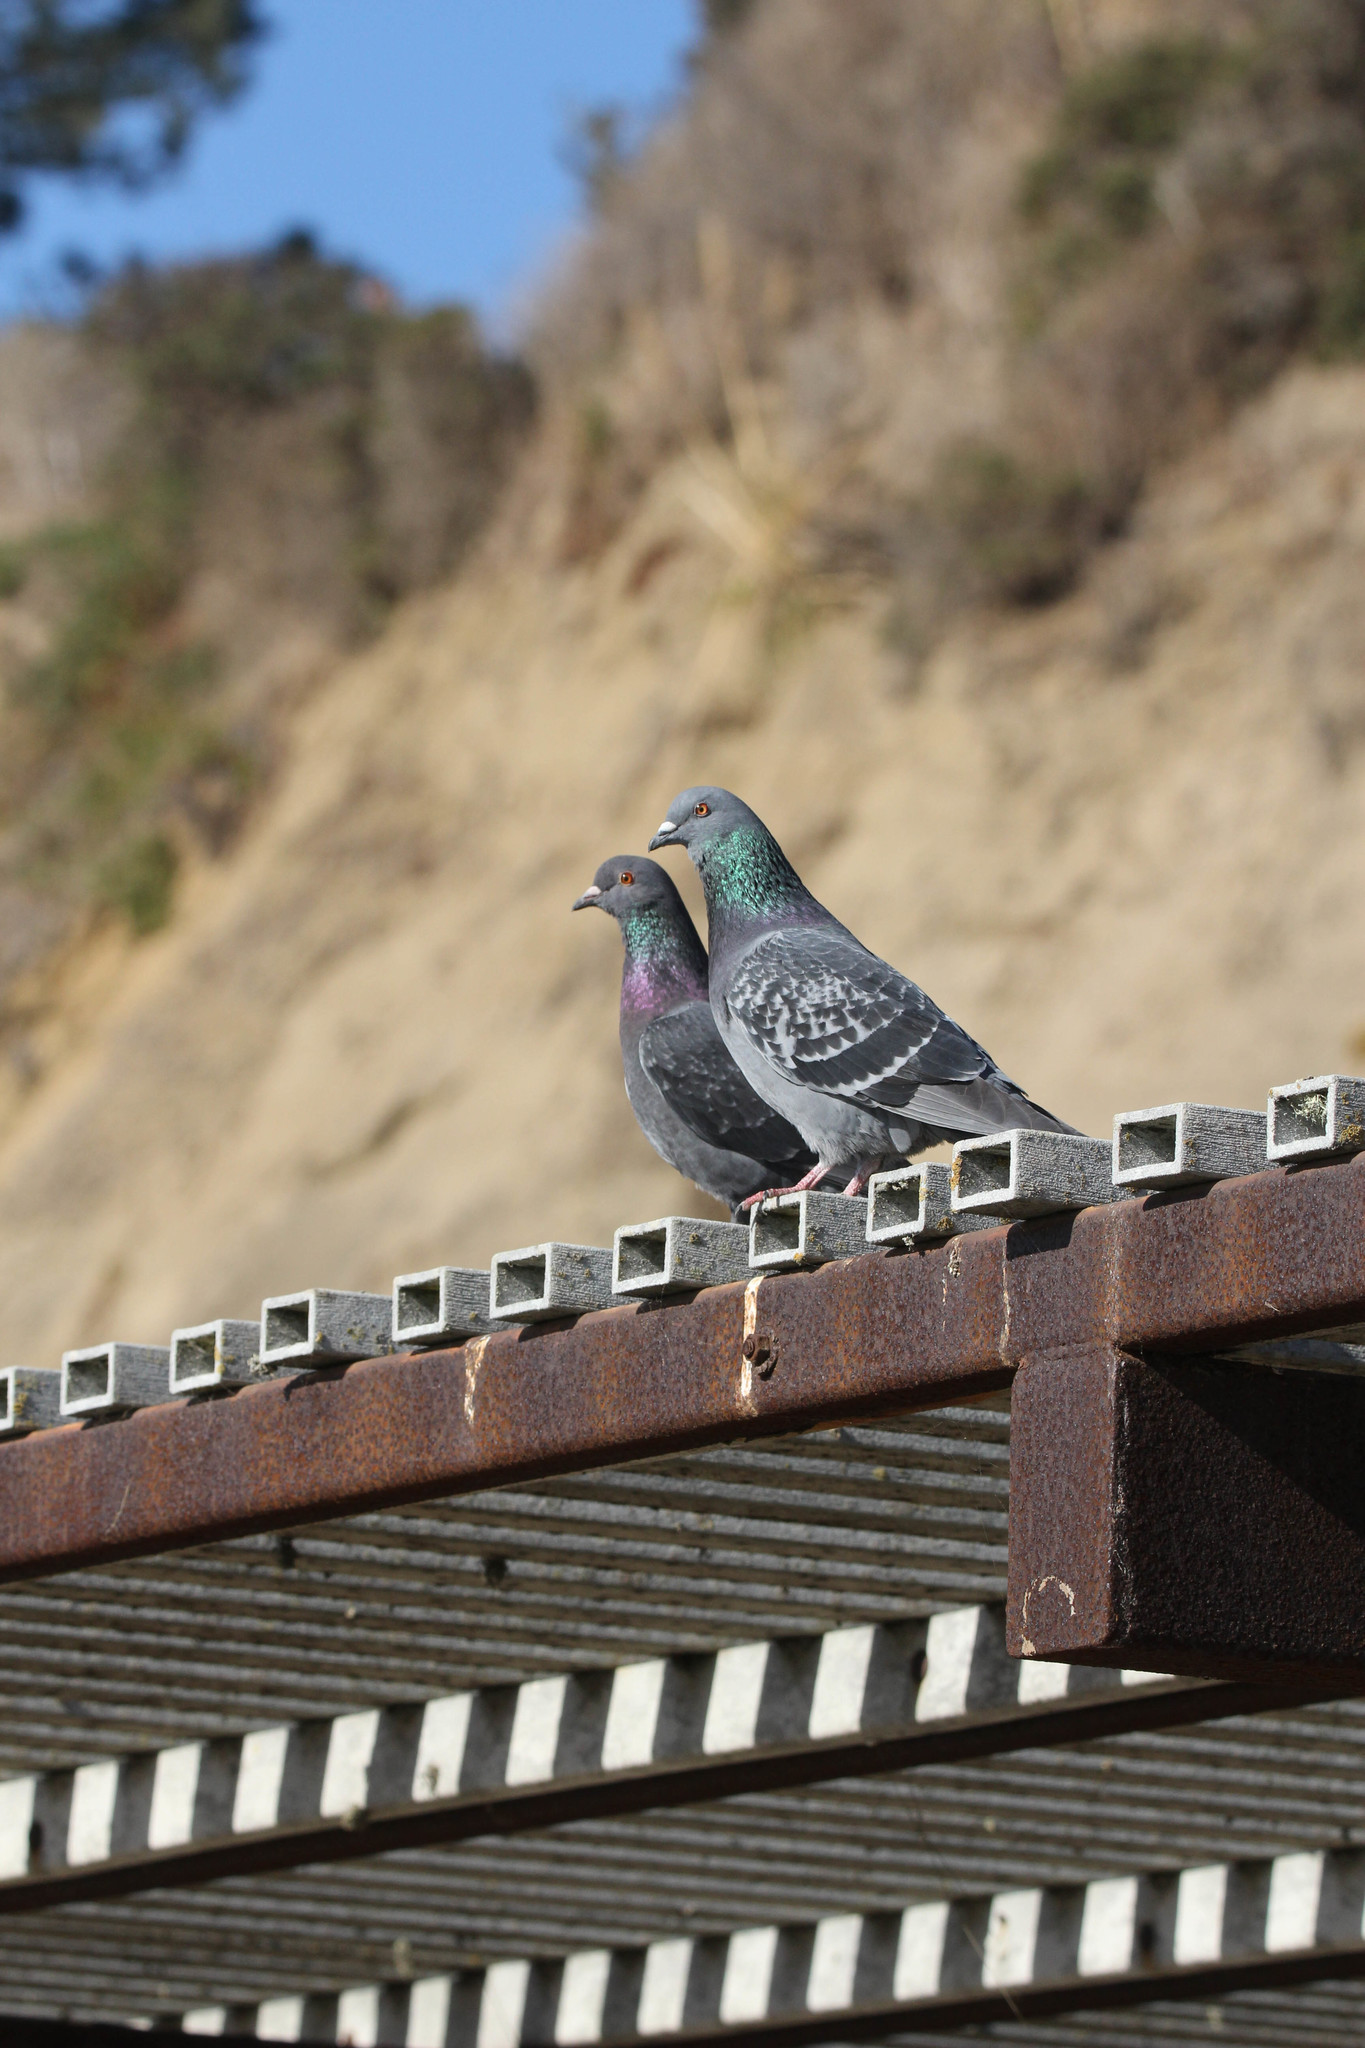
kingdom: Animalia
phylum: Chordata
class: Aves
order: Columbiformes
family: Columbidae
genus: Columba
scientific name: Columba livia
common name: Rock pigeon
